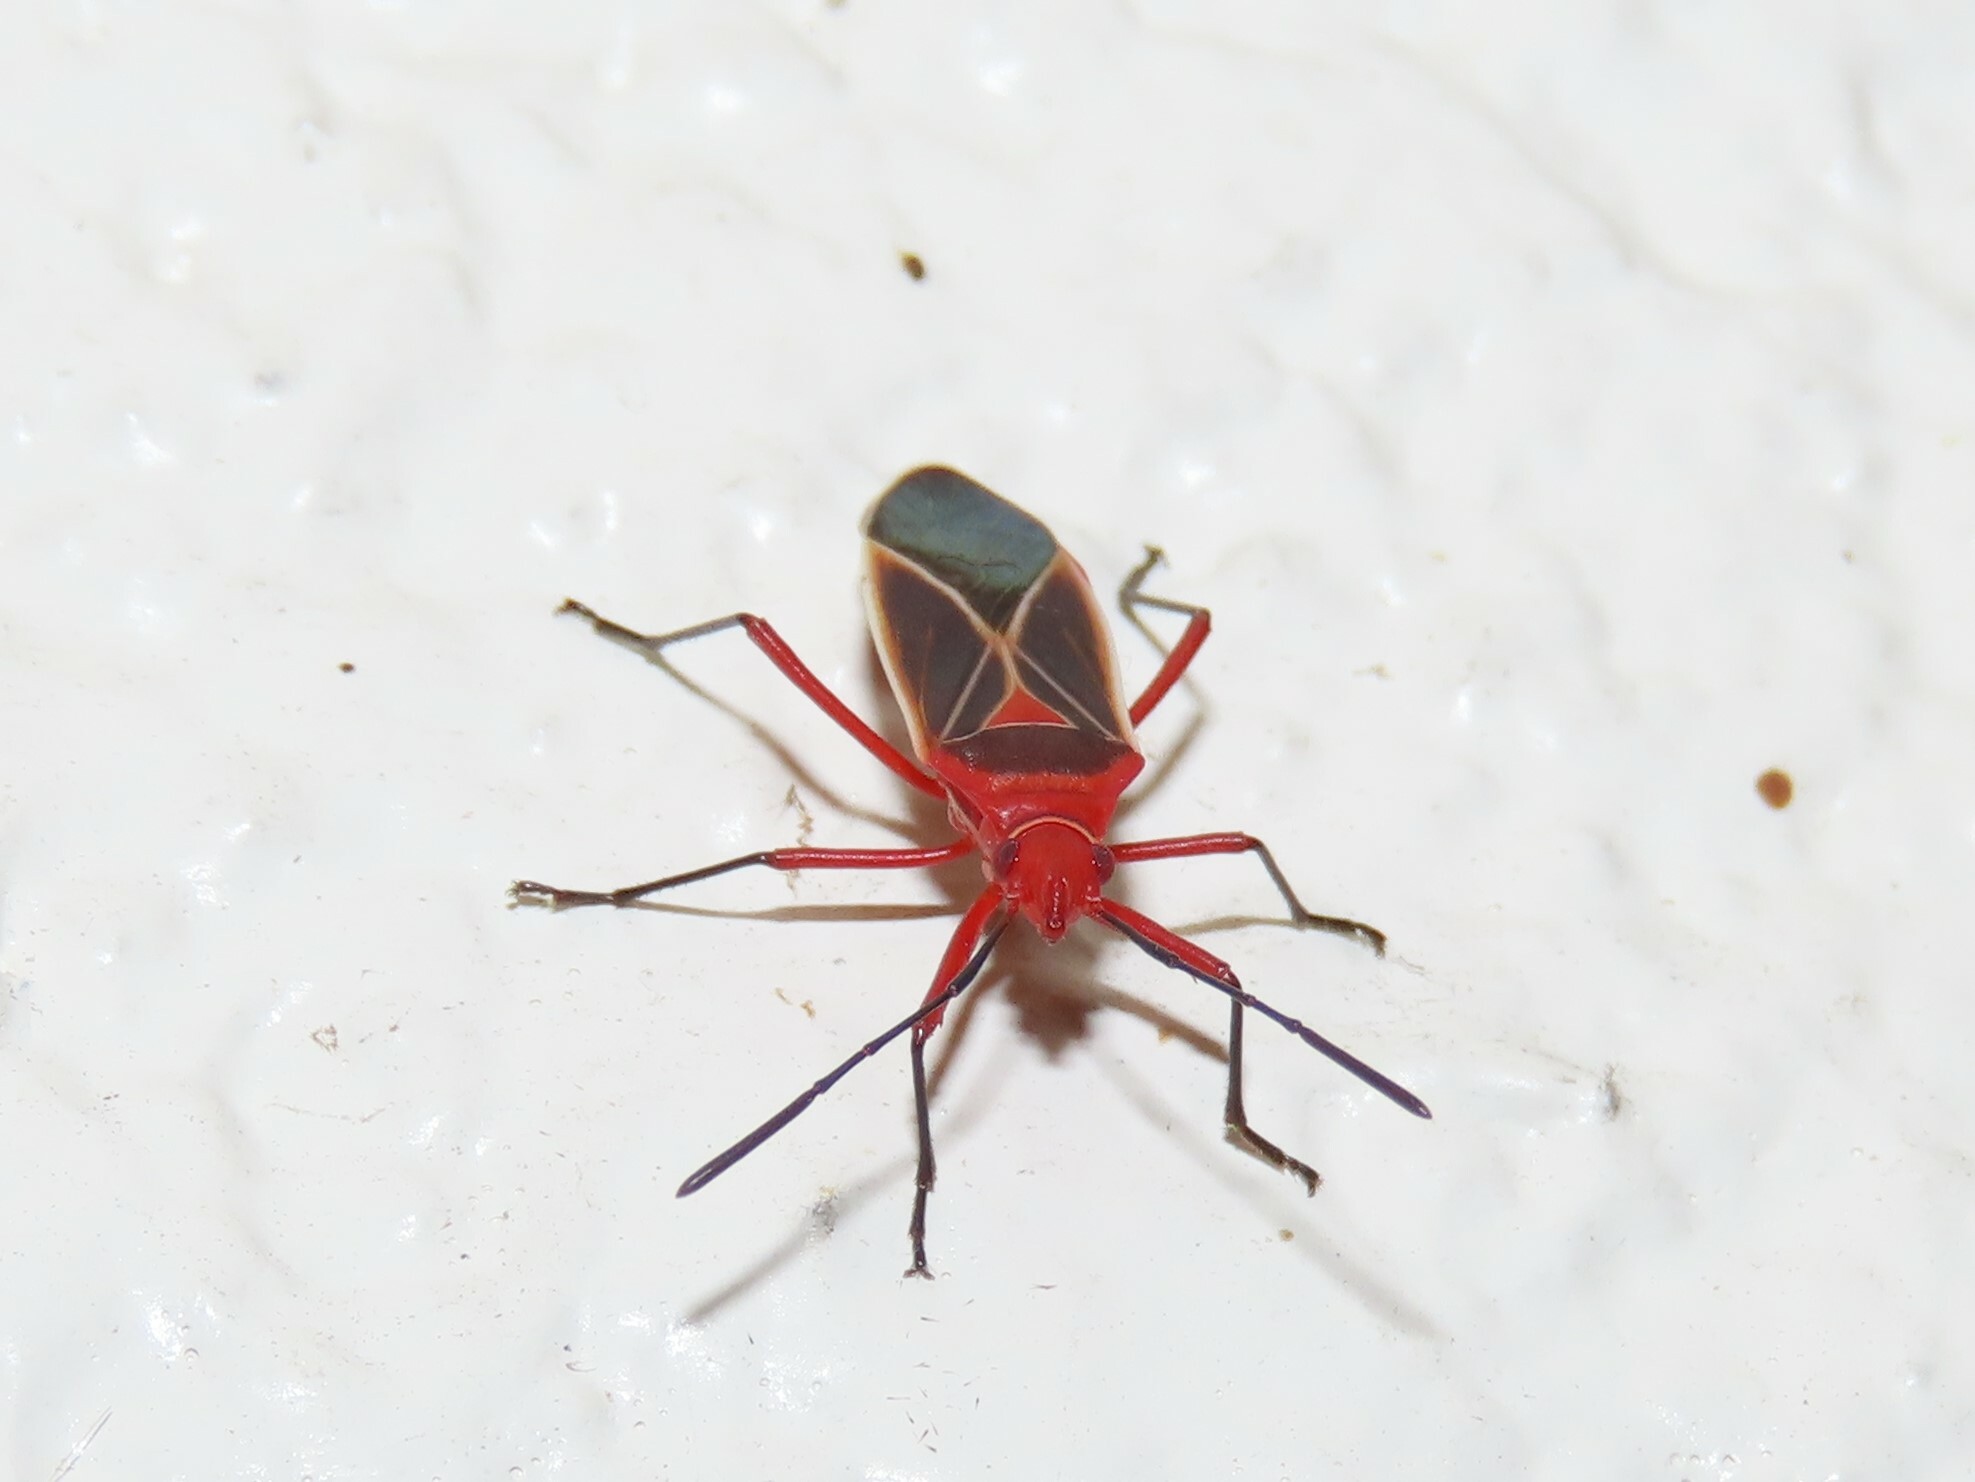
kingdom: Animalia
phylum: Arthropoda
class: Insecta
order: Hemiptera
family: Pyrrhocoridae
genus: Dysdercus
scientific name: Dysdercus suturellus
